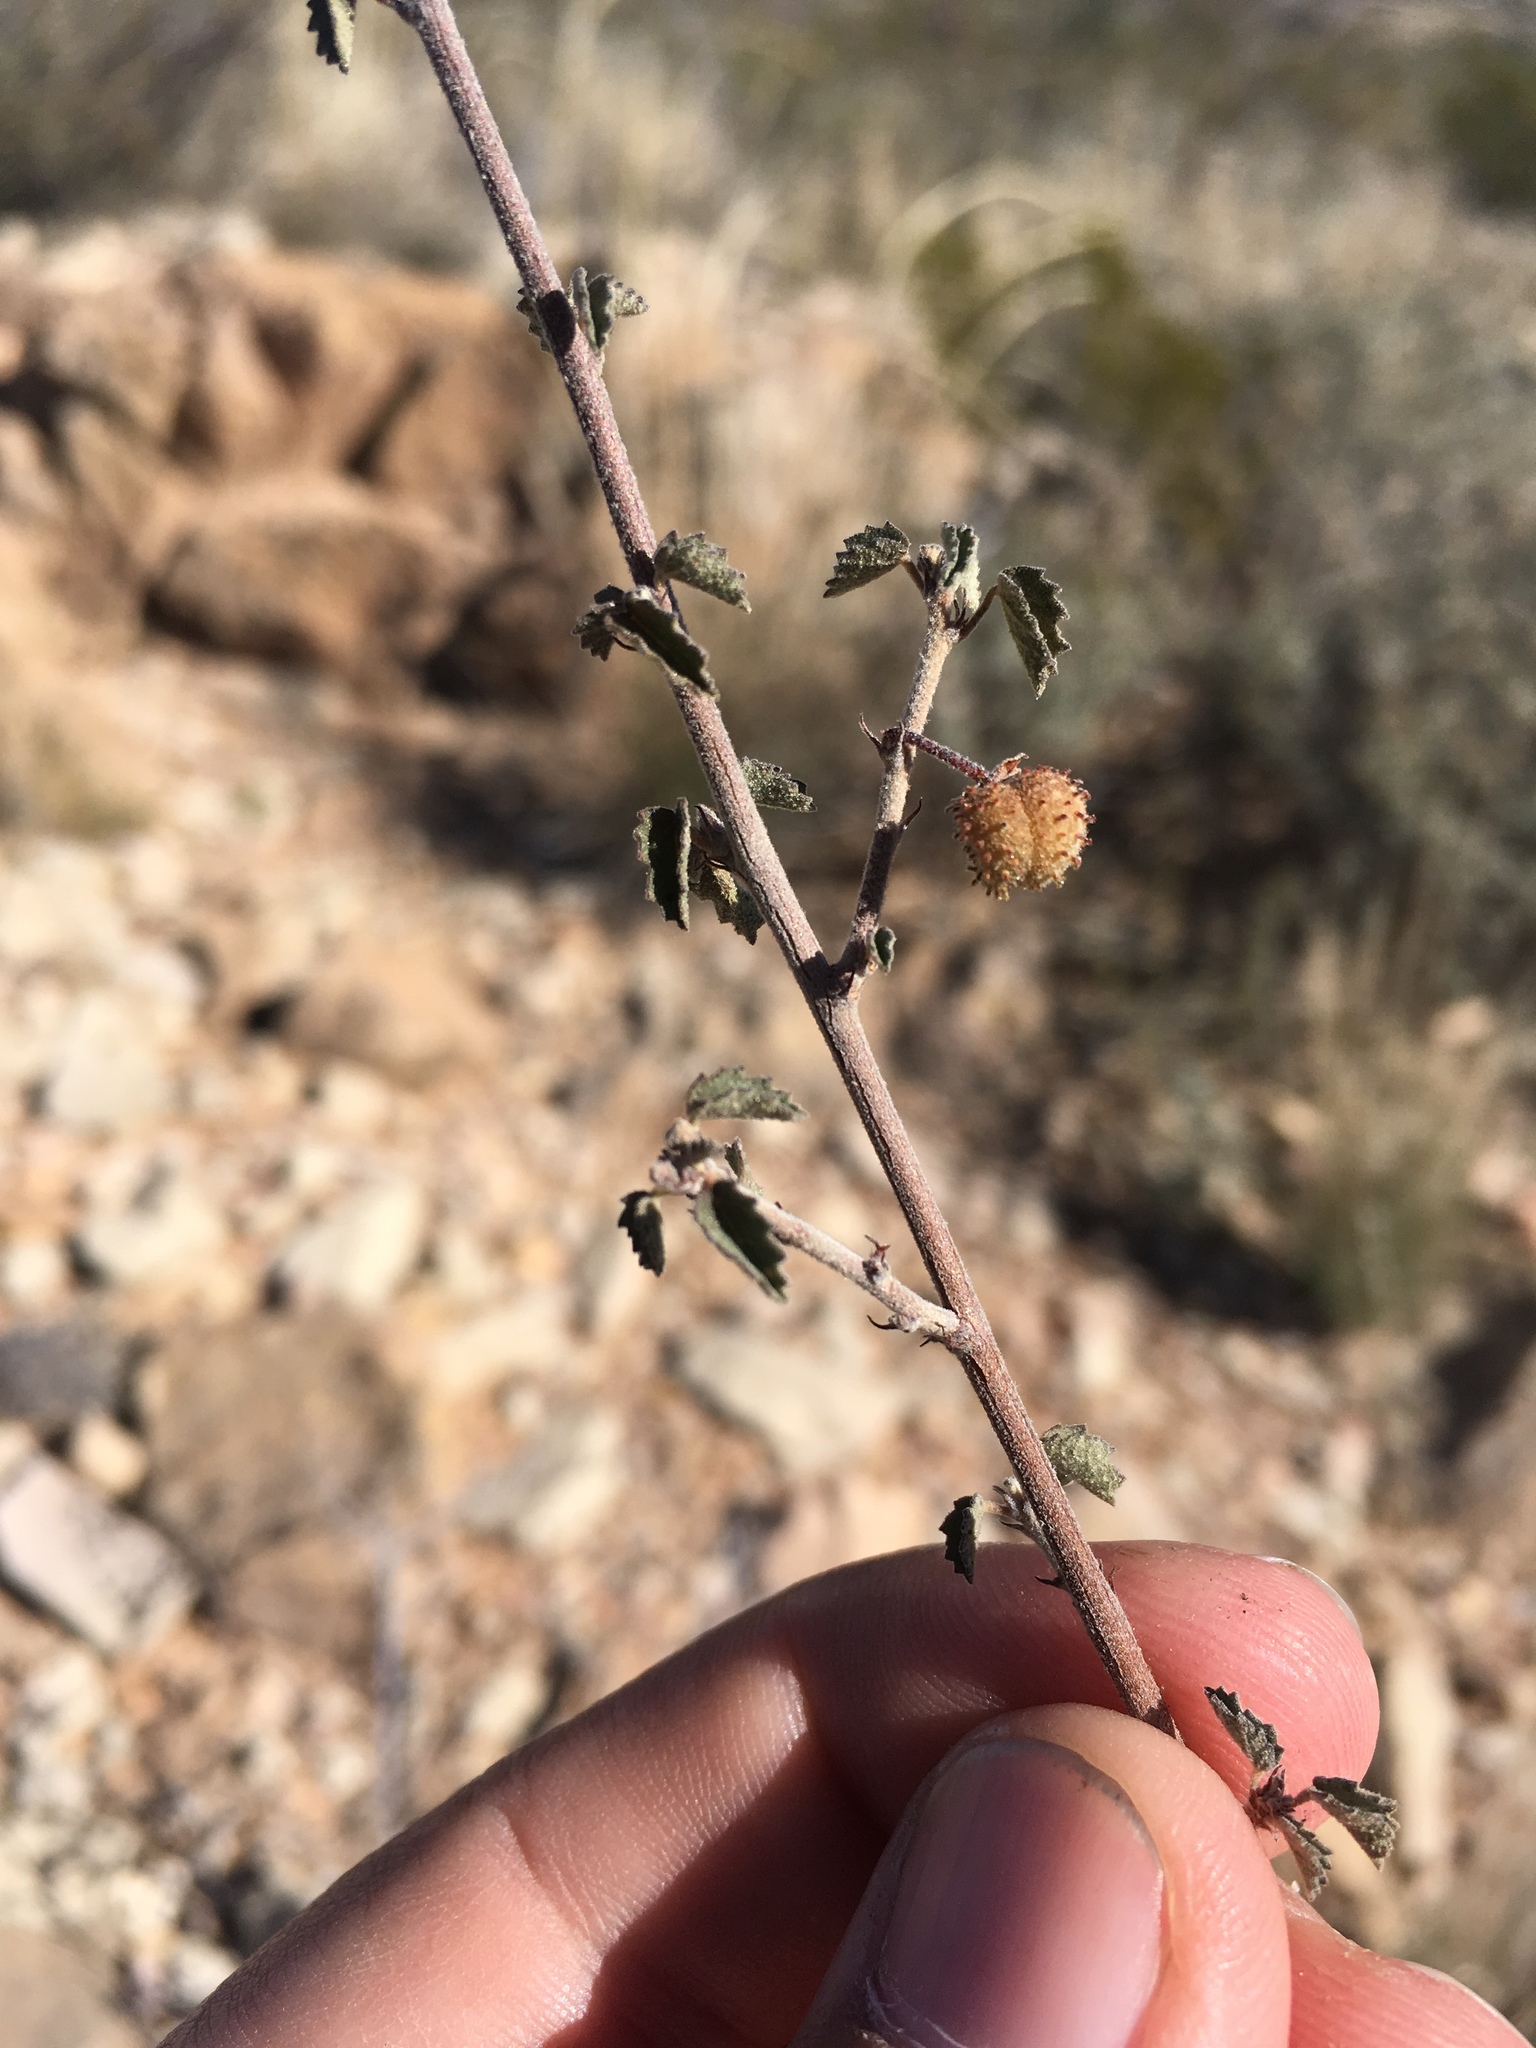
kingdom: Plantae
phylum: Tracheophyta
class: Magnoliopsida
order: Malvales
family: Malvaceae
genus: Ayenia
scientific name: Ayenia microphylla
